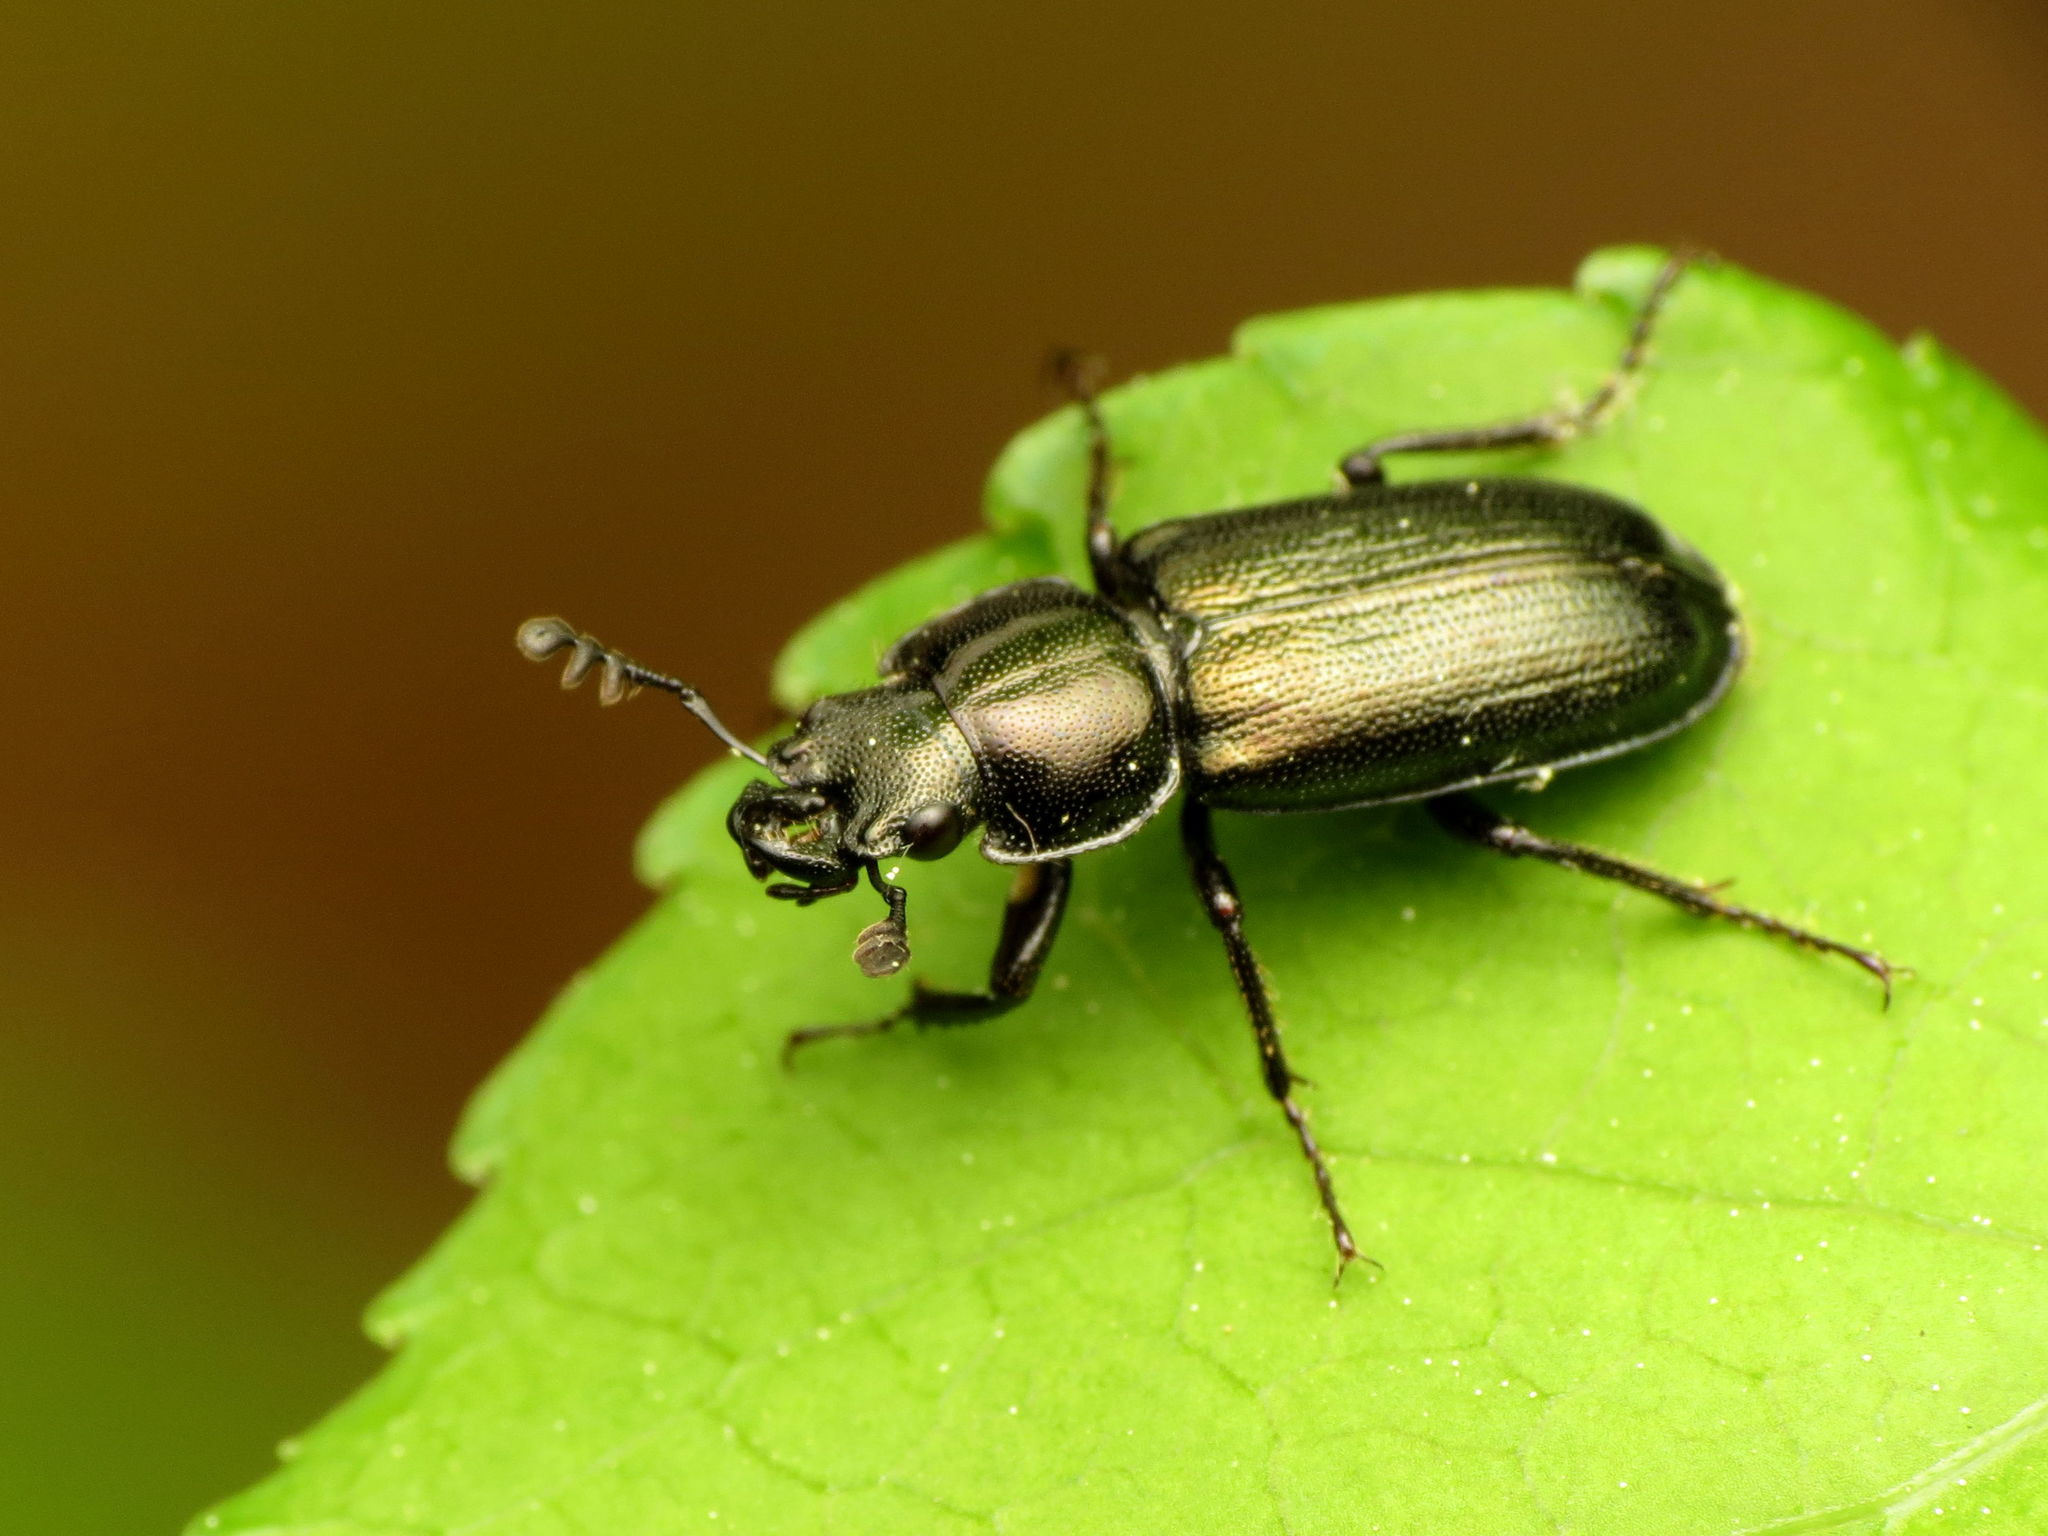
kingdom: Animalia
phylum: Arthropoda
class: Insecta
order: Coleoptera
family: Lucanidae
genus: Platycerus
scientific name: Platycerus quercus
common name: Oak stag beetle
